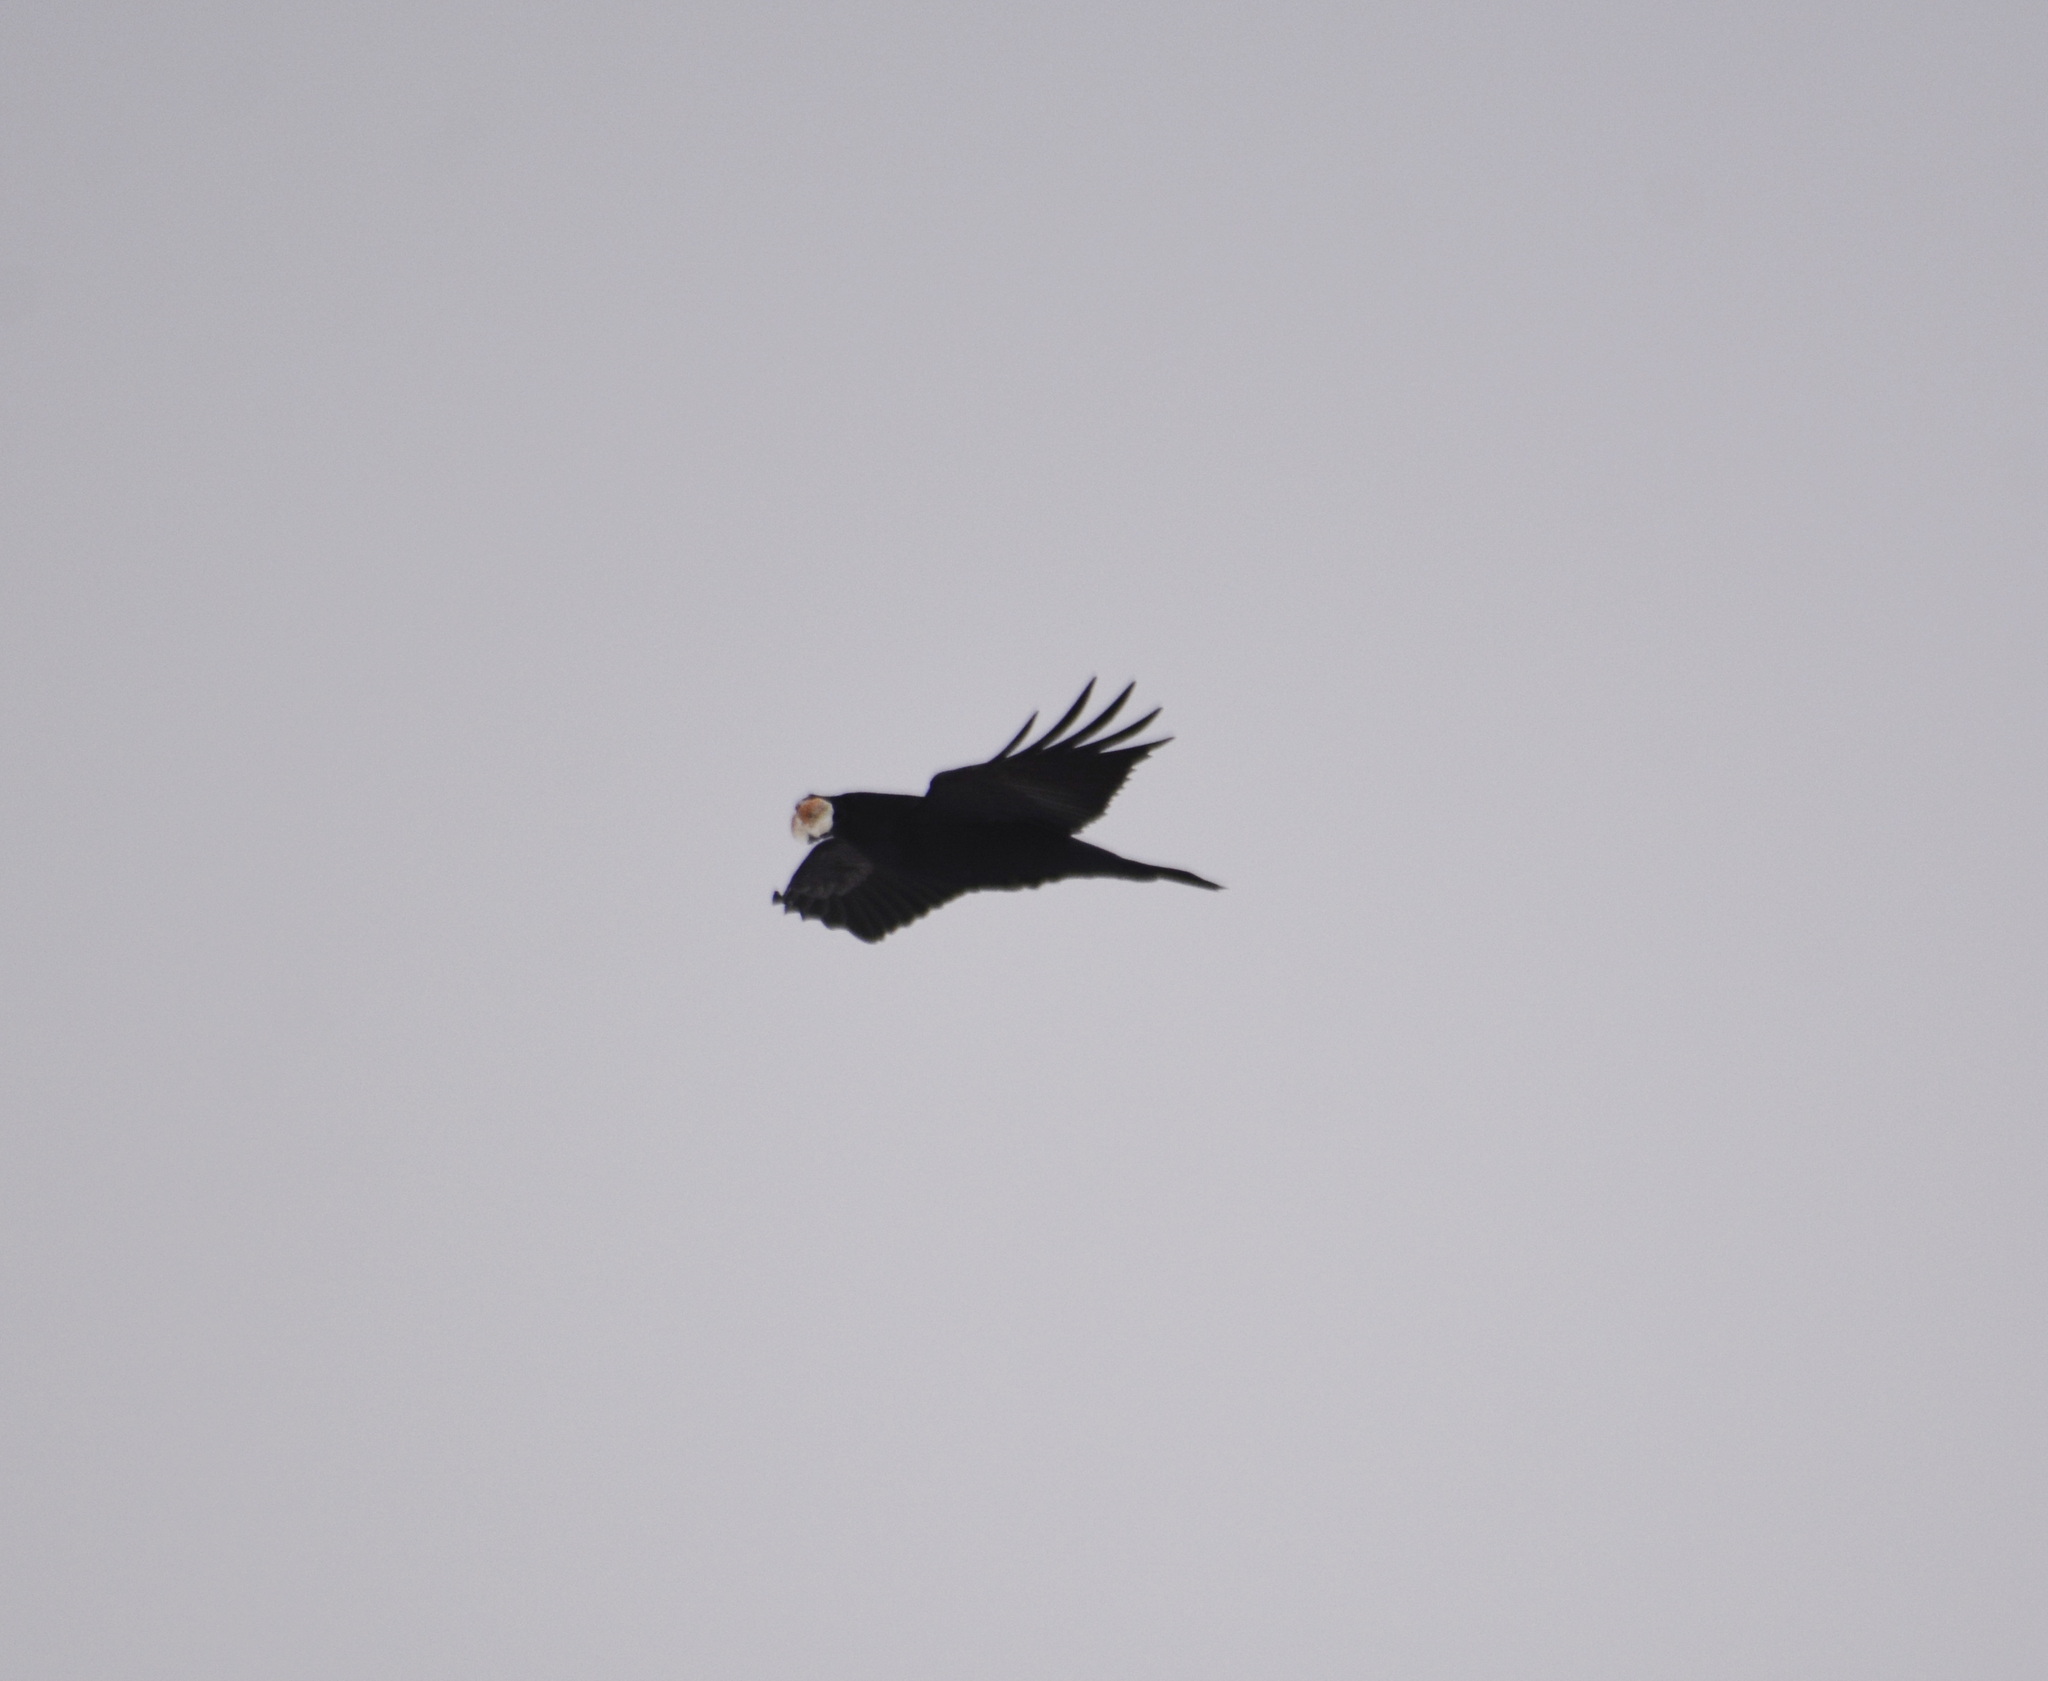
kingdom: Animalia
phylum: Chordata
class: Aves
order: Passeriformes
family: Corvidae
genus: Corvus
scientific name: Corvus corax
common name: Common raven
